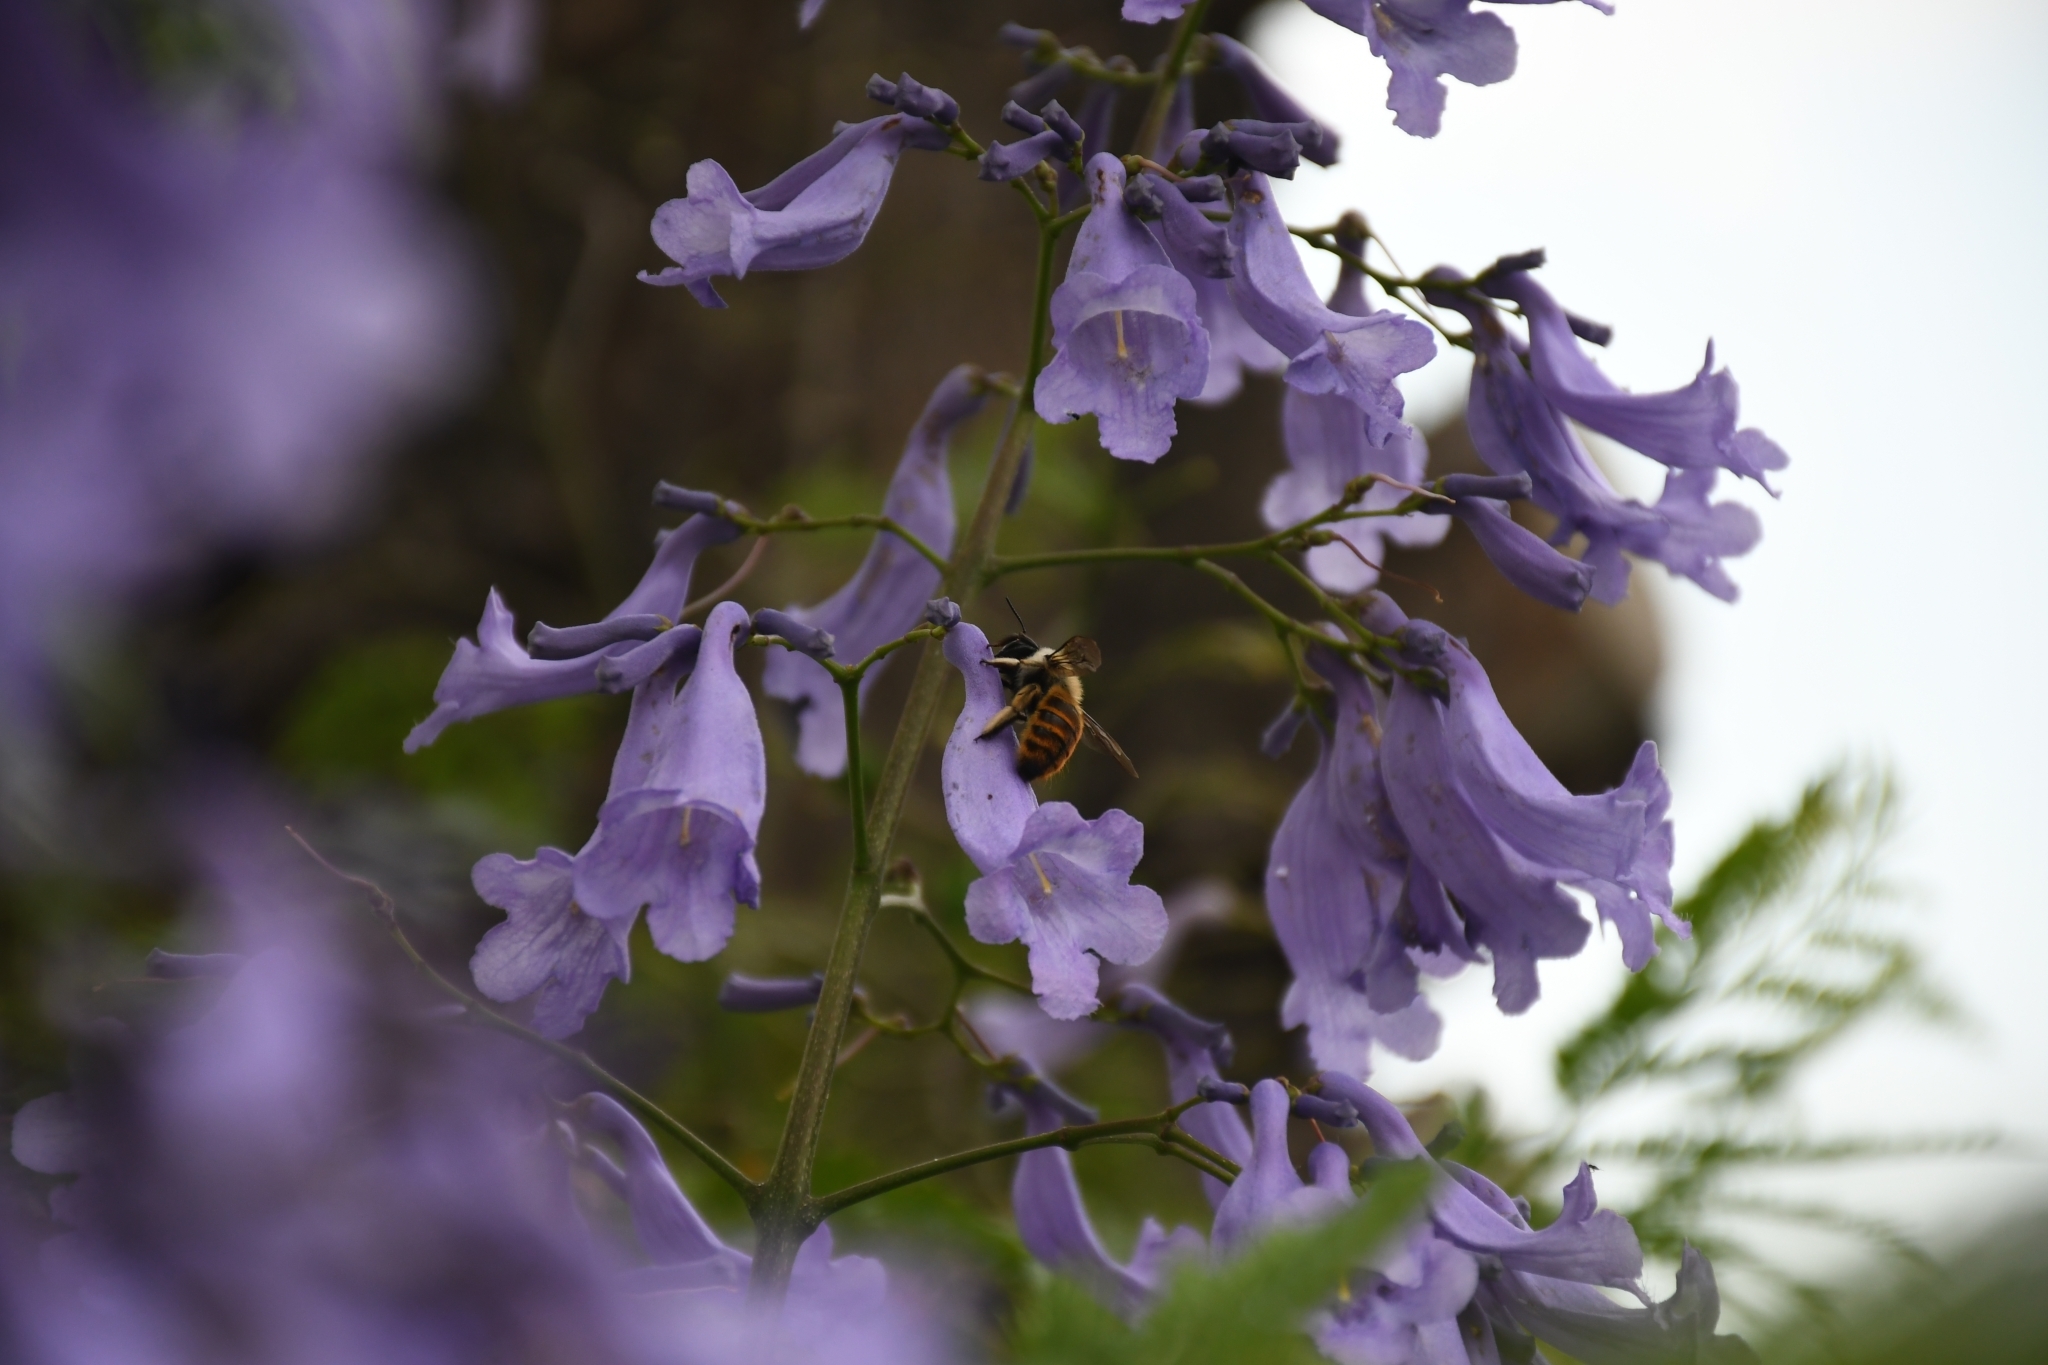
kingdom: Animalia
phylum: Arthropoda
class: Insecta
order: Hymenoptera
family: Apidae
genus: Xylocopa
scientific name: Xylocopa tabaniformis
